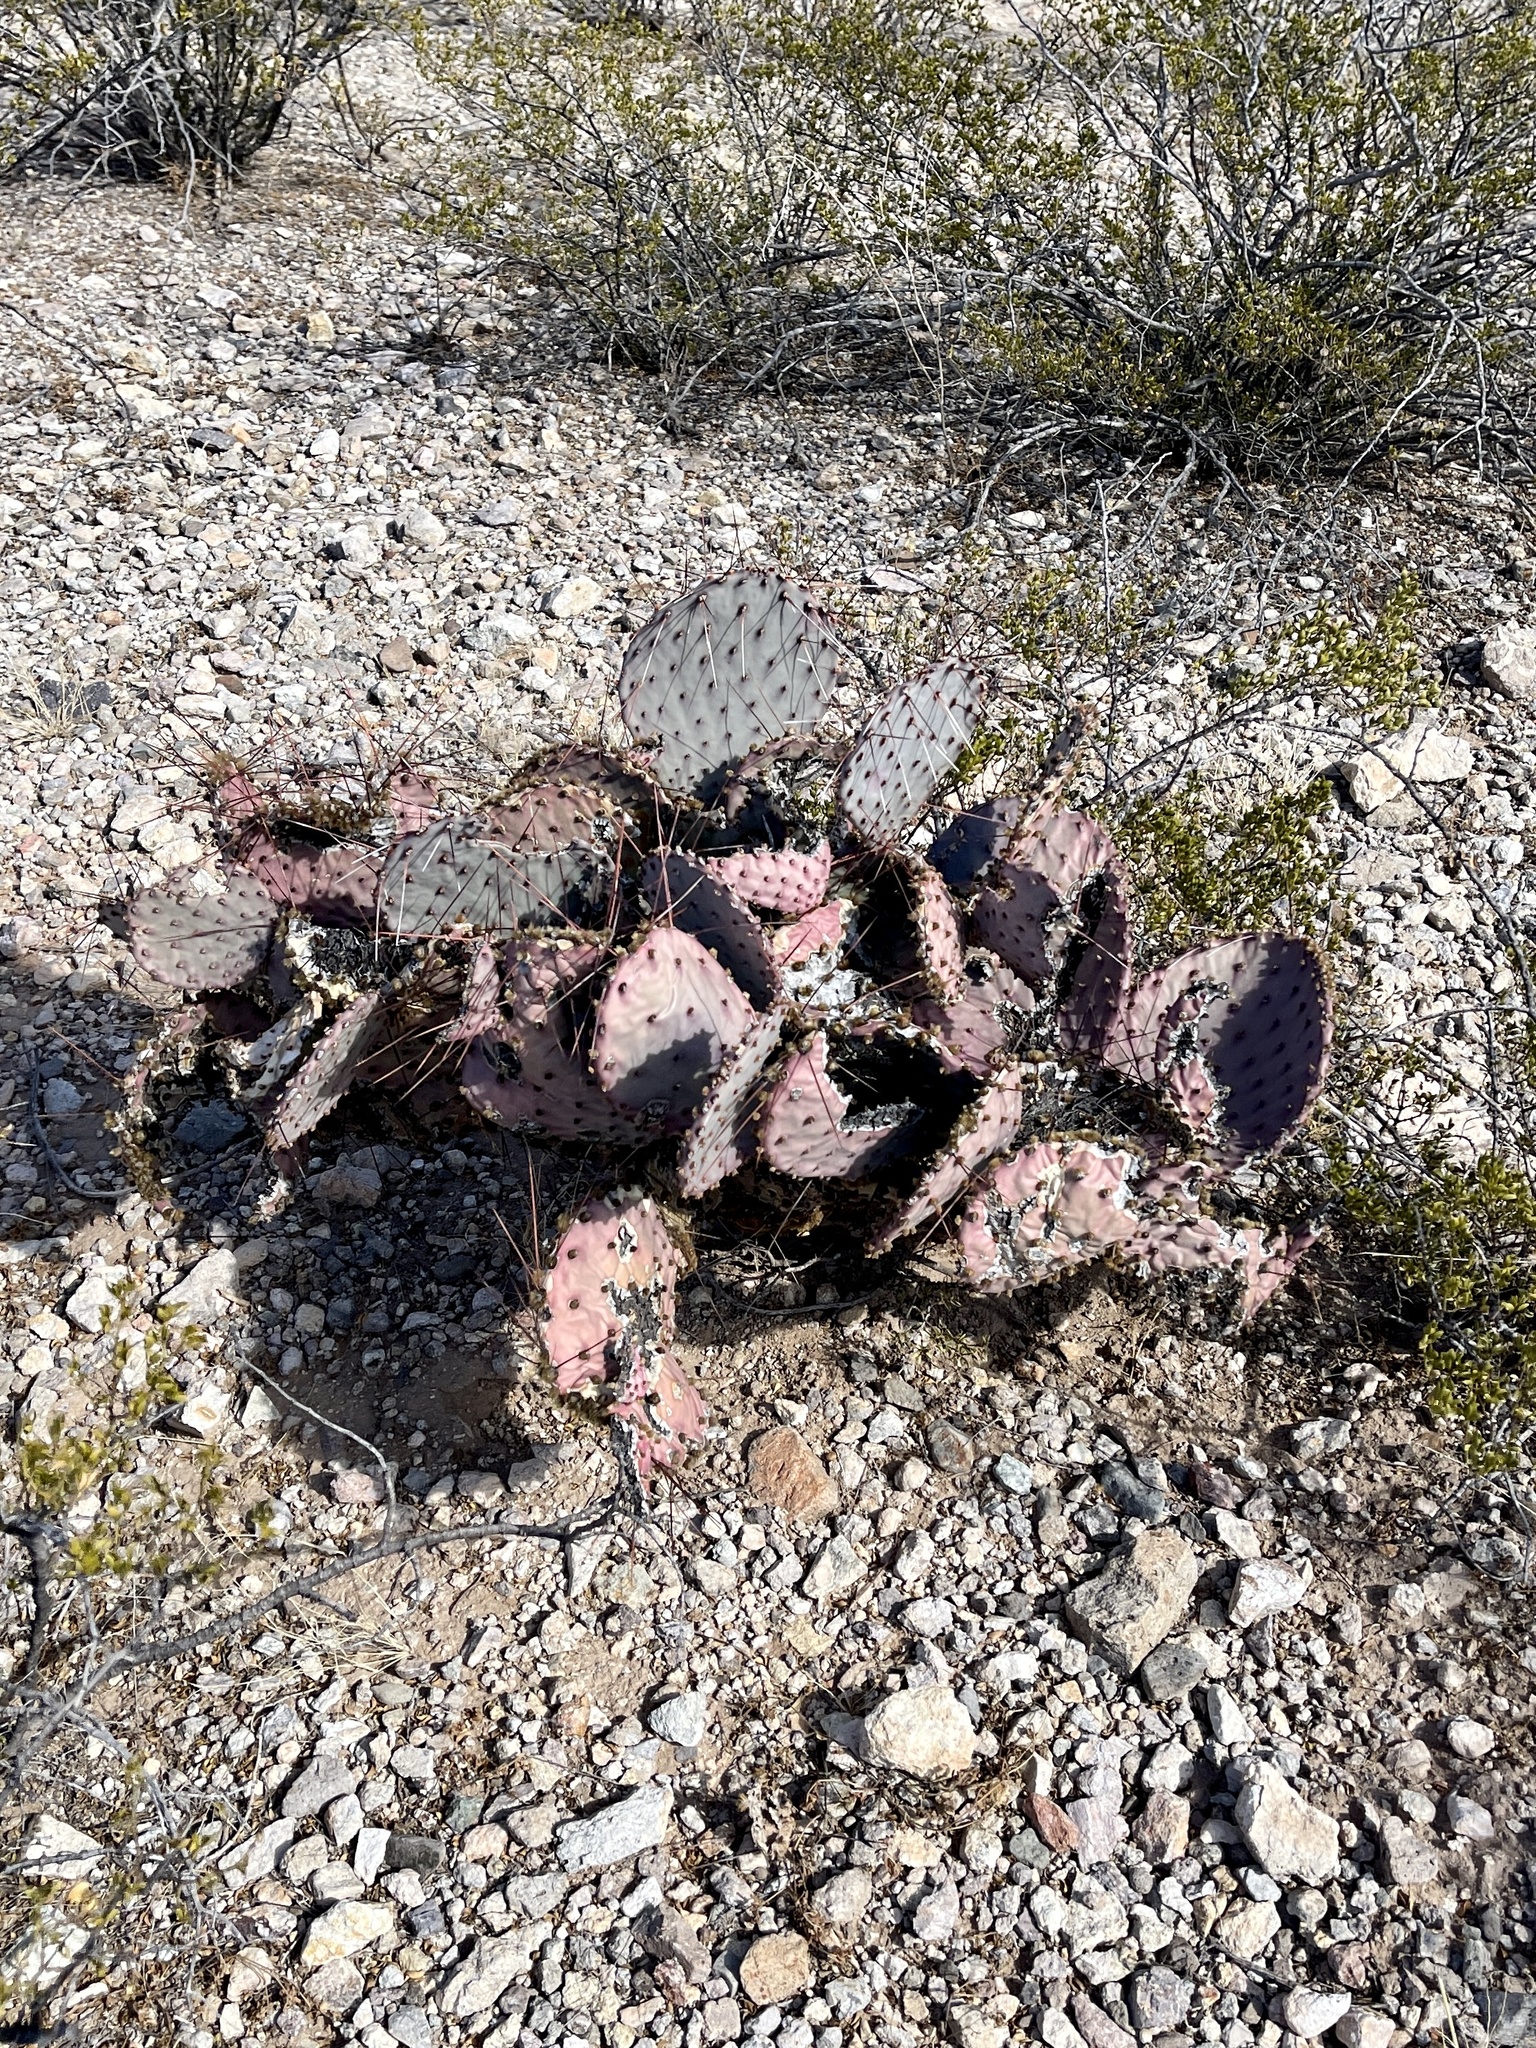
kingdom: Plantae
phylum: Tracheophyta
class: Magnoliopsida
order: Caryophyllales
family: Cactaceae
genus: Opuntia
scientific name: Opuntia macrocentra
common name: Purple prickly-pear
